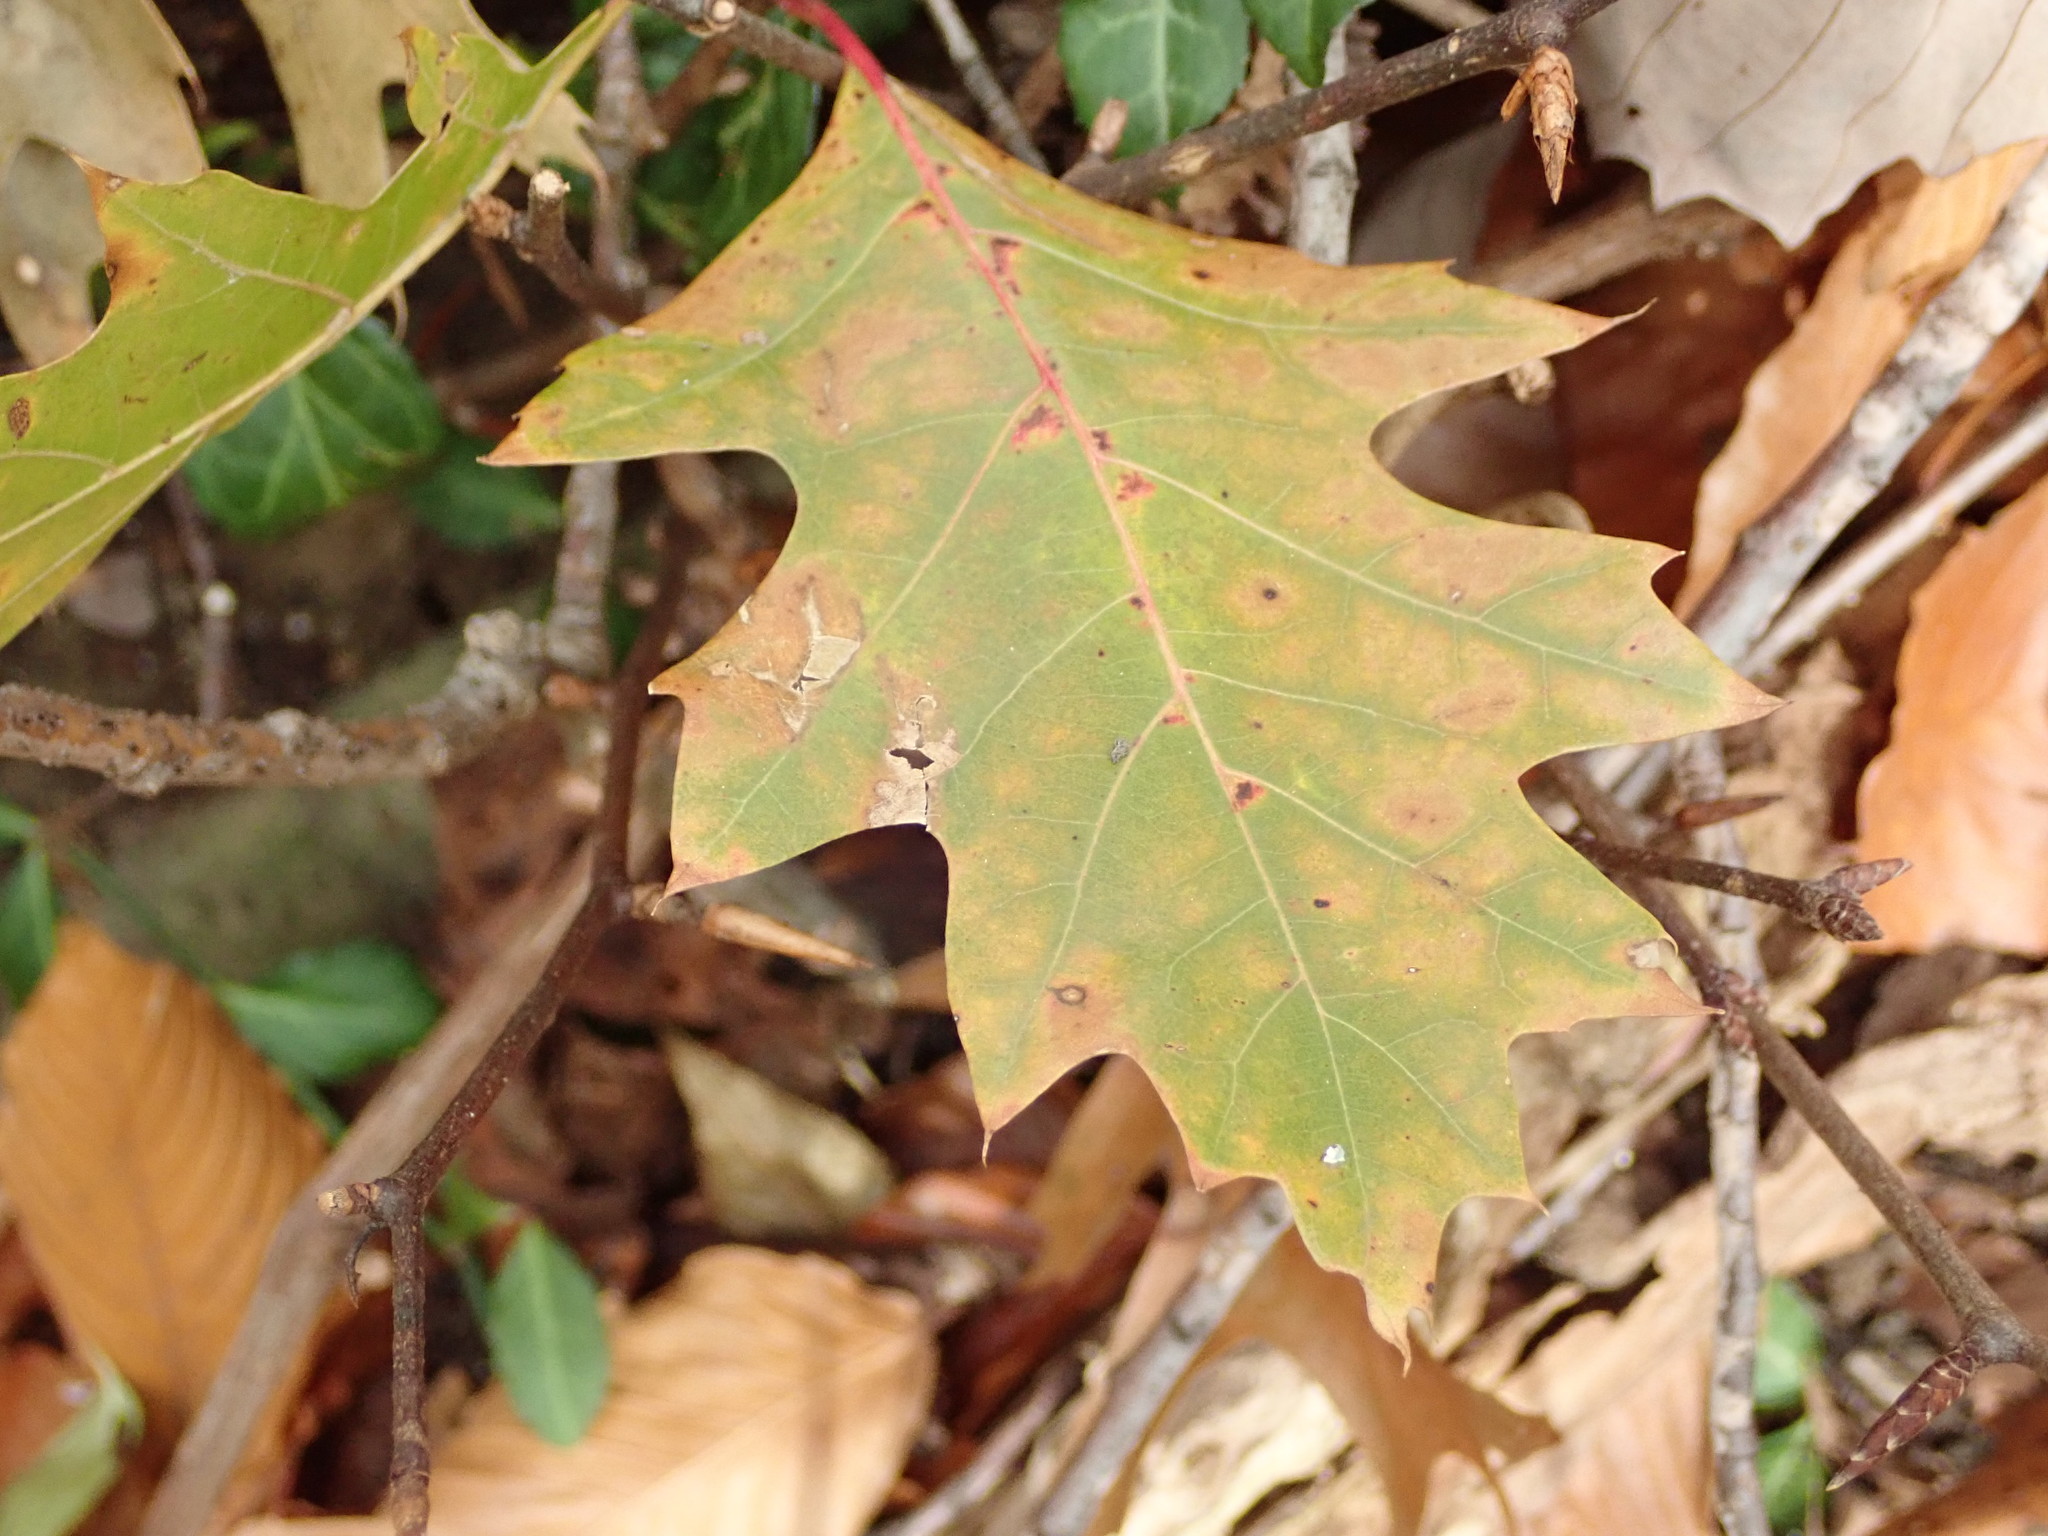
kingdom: Plantae
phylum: Tracheophyta
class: Magnoliopsida
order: Fagales
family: Fagaceae
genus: Quercus
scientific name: Quercus rubra
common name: Red oak
